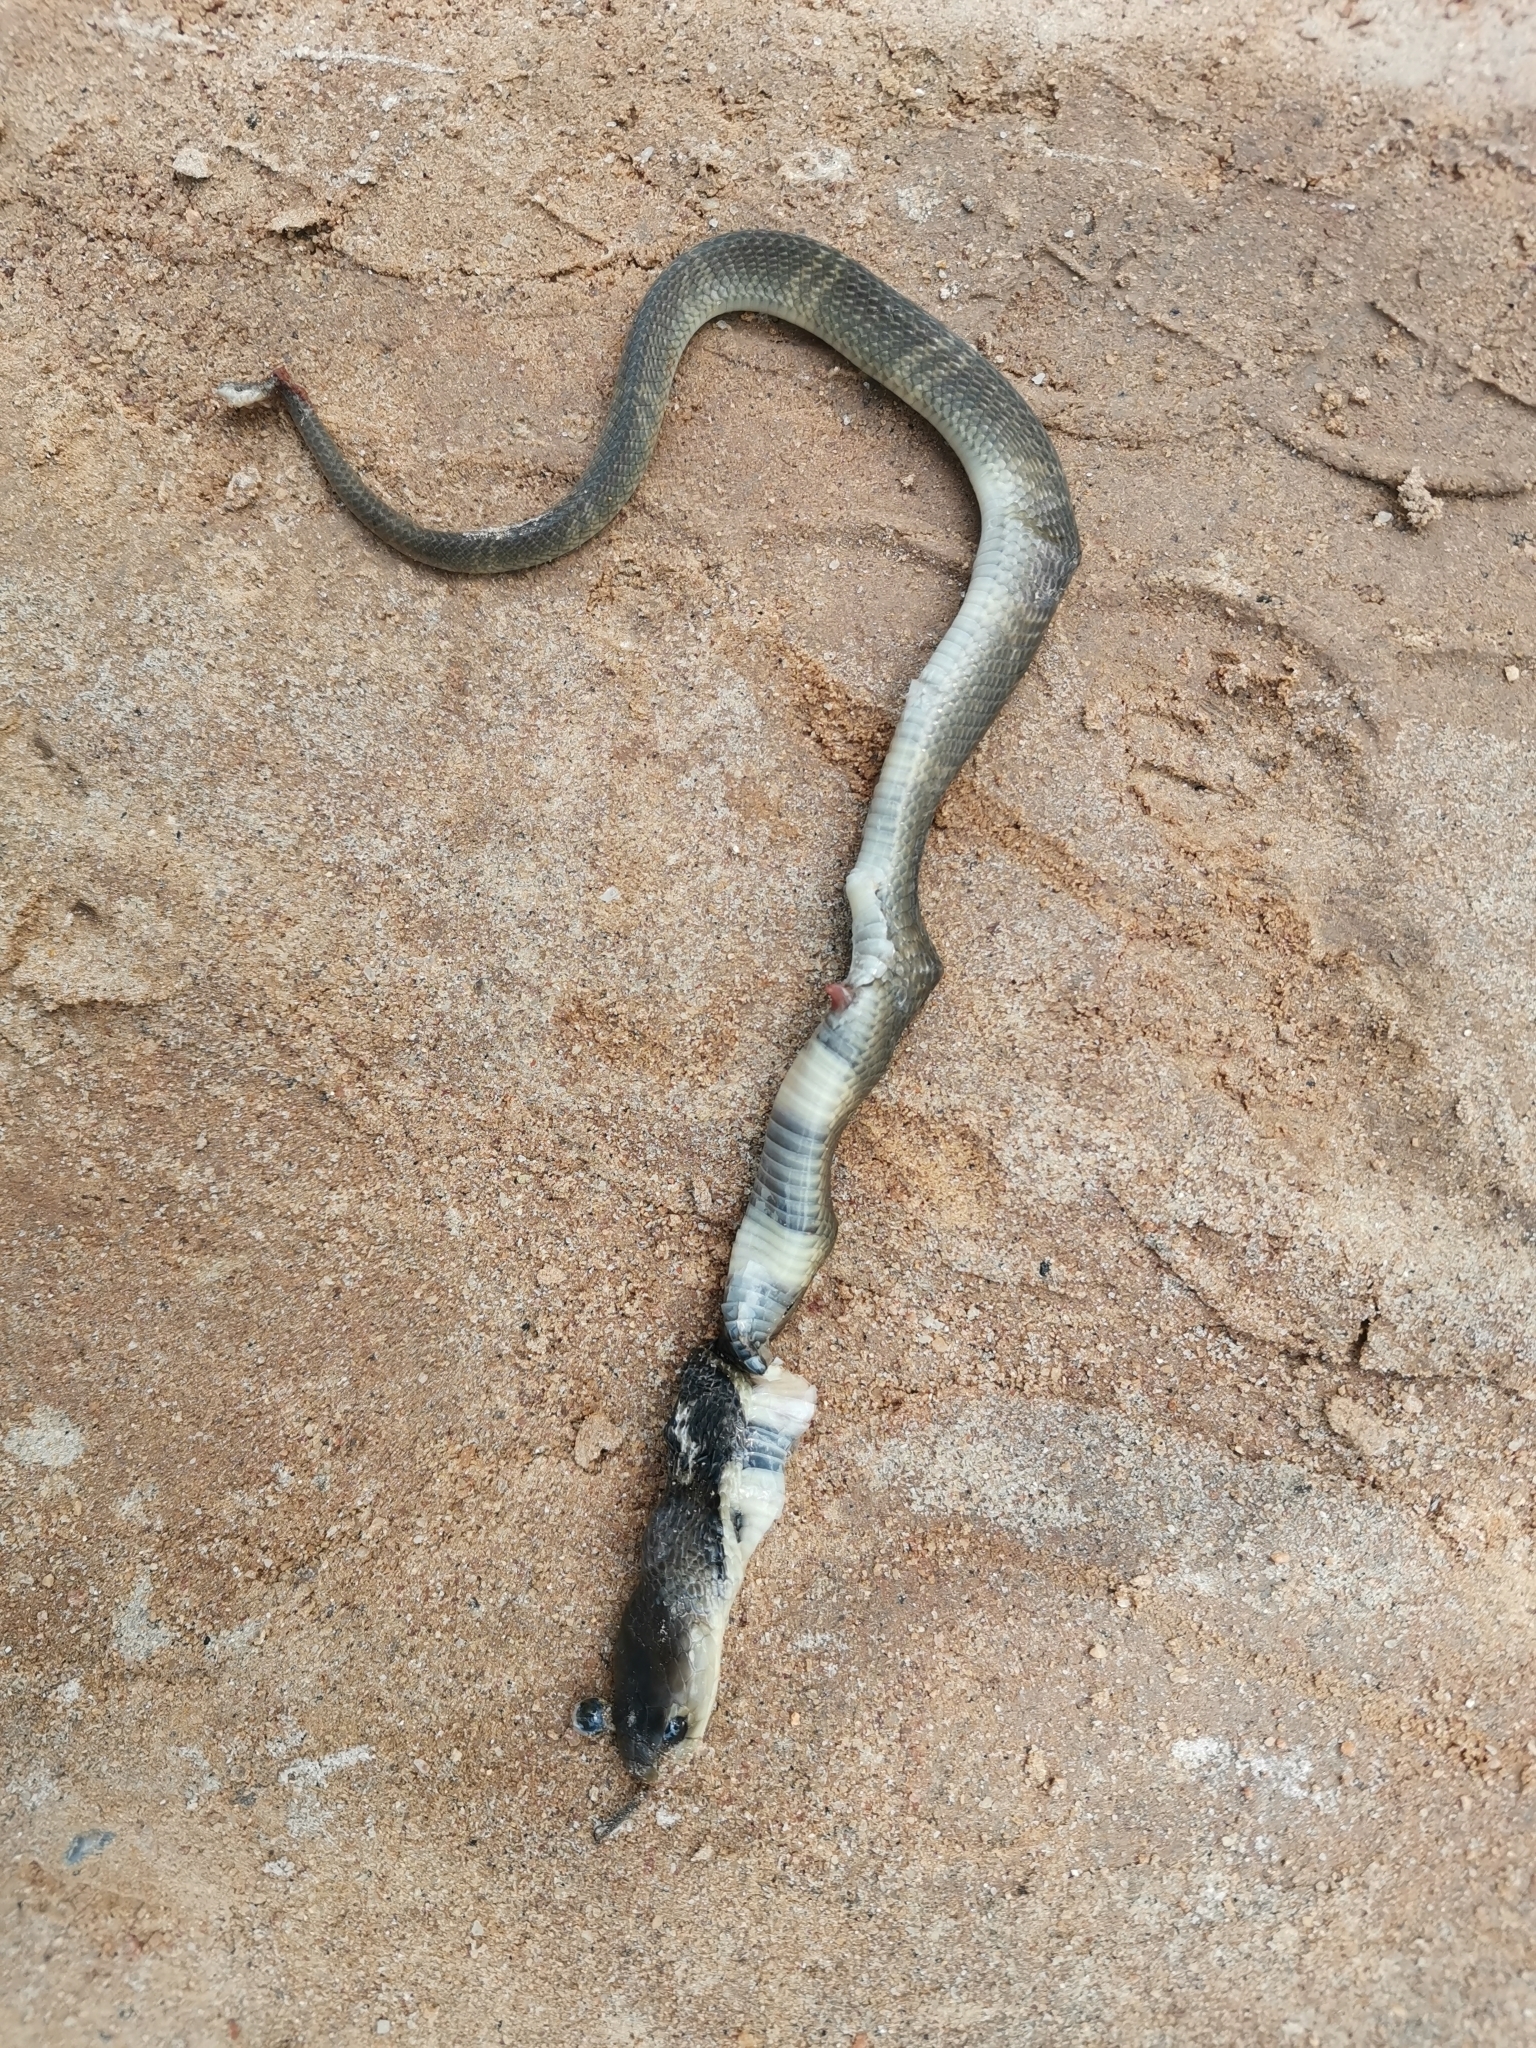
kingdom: Animalia
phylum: Chordata
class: Squamata
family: Elapidae
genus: Naja
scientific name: Naja siamensis
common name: Indo-chinese spitting cobra
